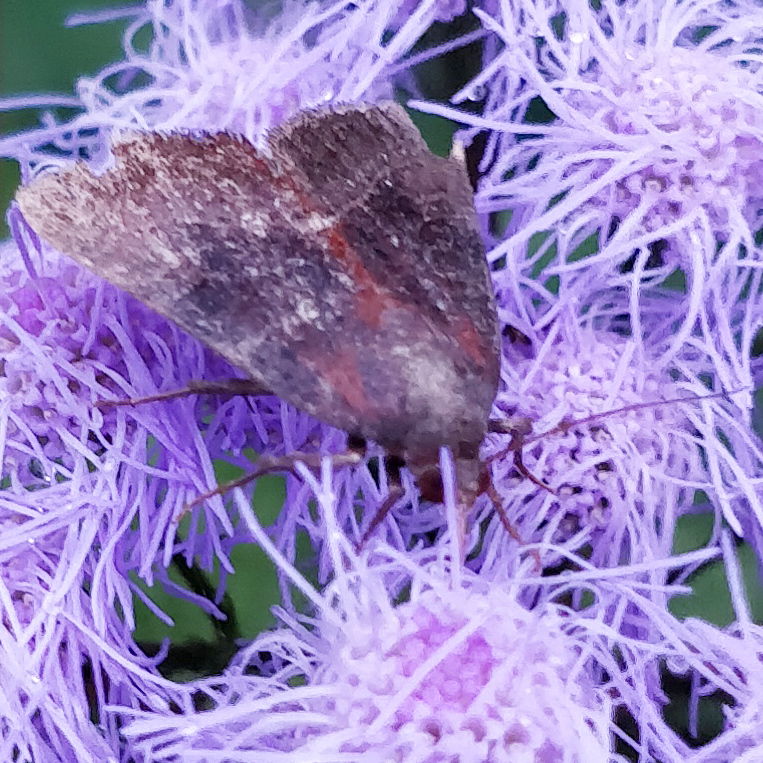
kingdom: Animalia
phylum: Arthropoda
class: Insecta
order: Lepidoptera
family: Noctuidae
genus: Galgula
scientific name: Galgula partita
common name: Wedgeling
